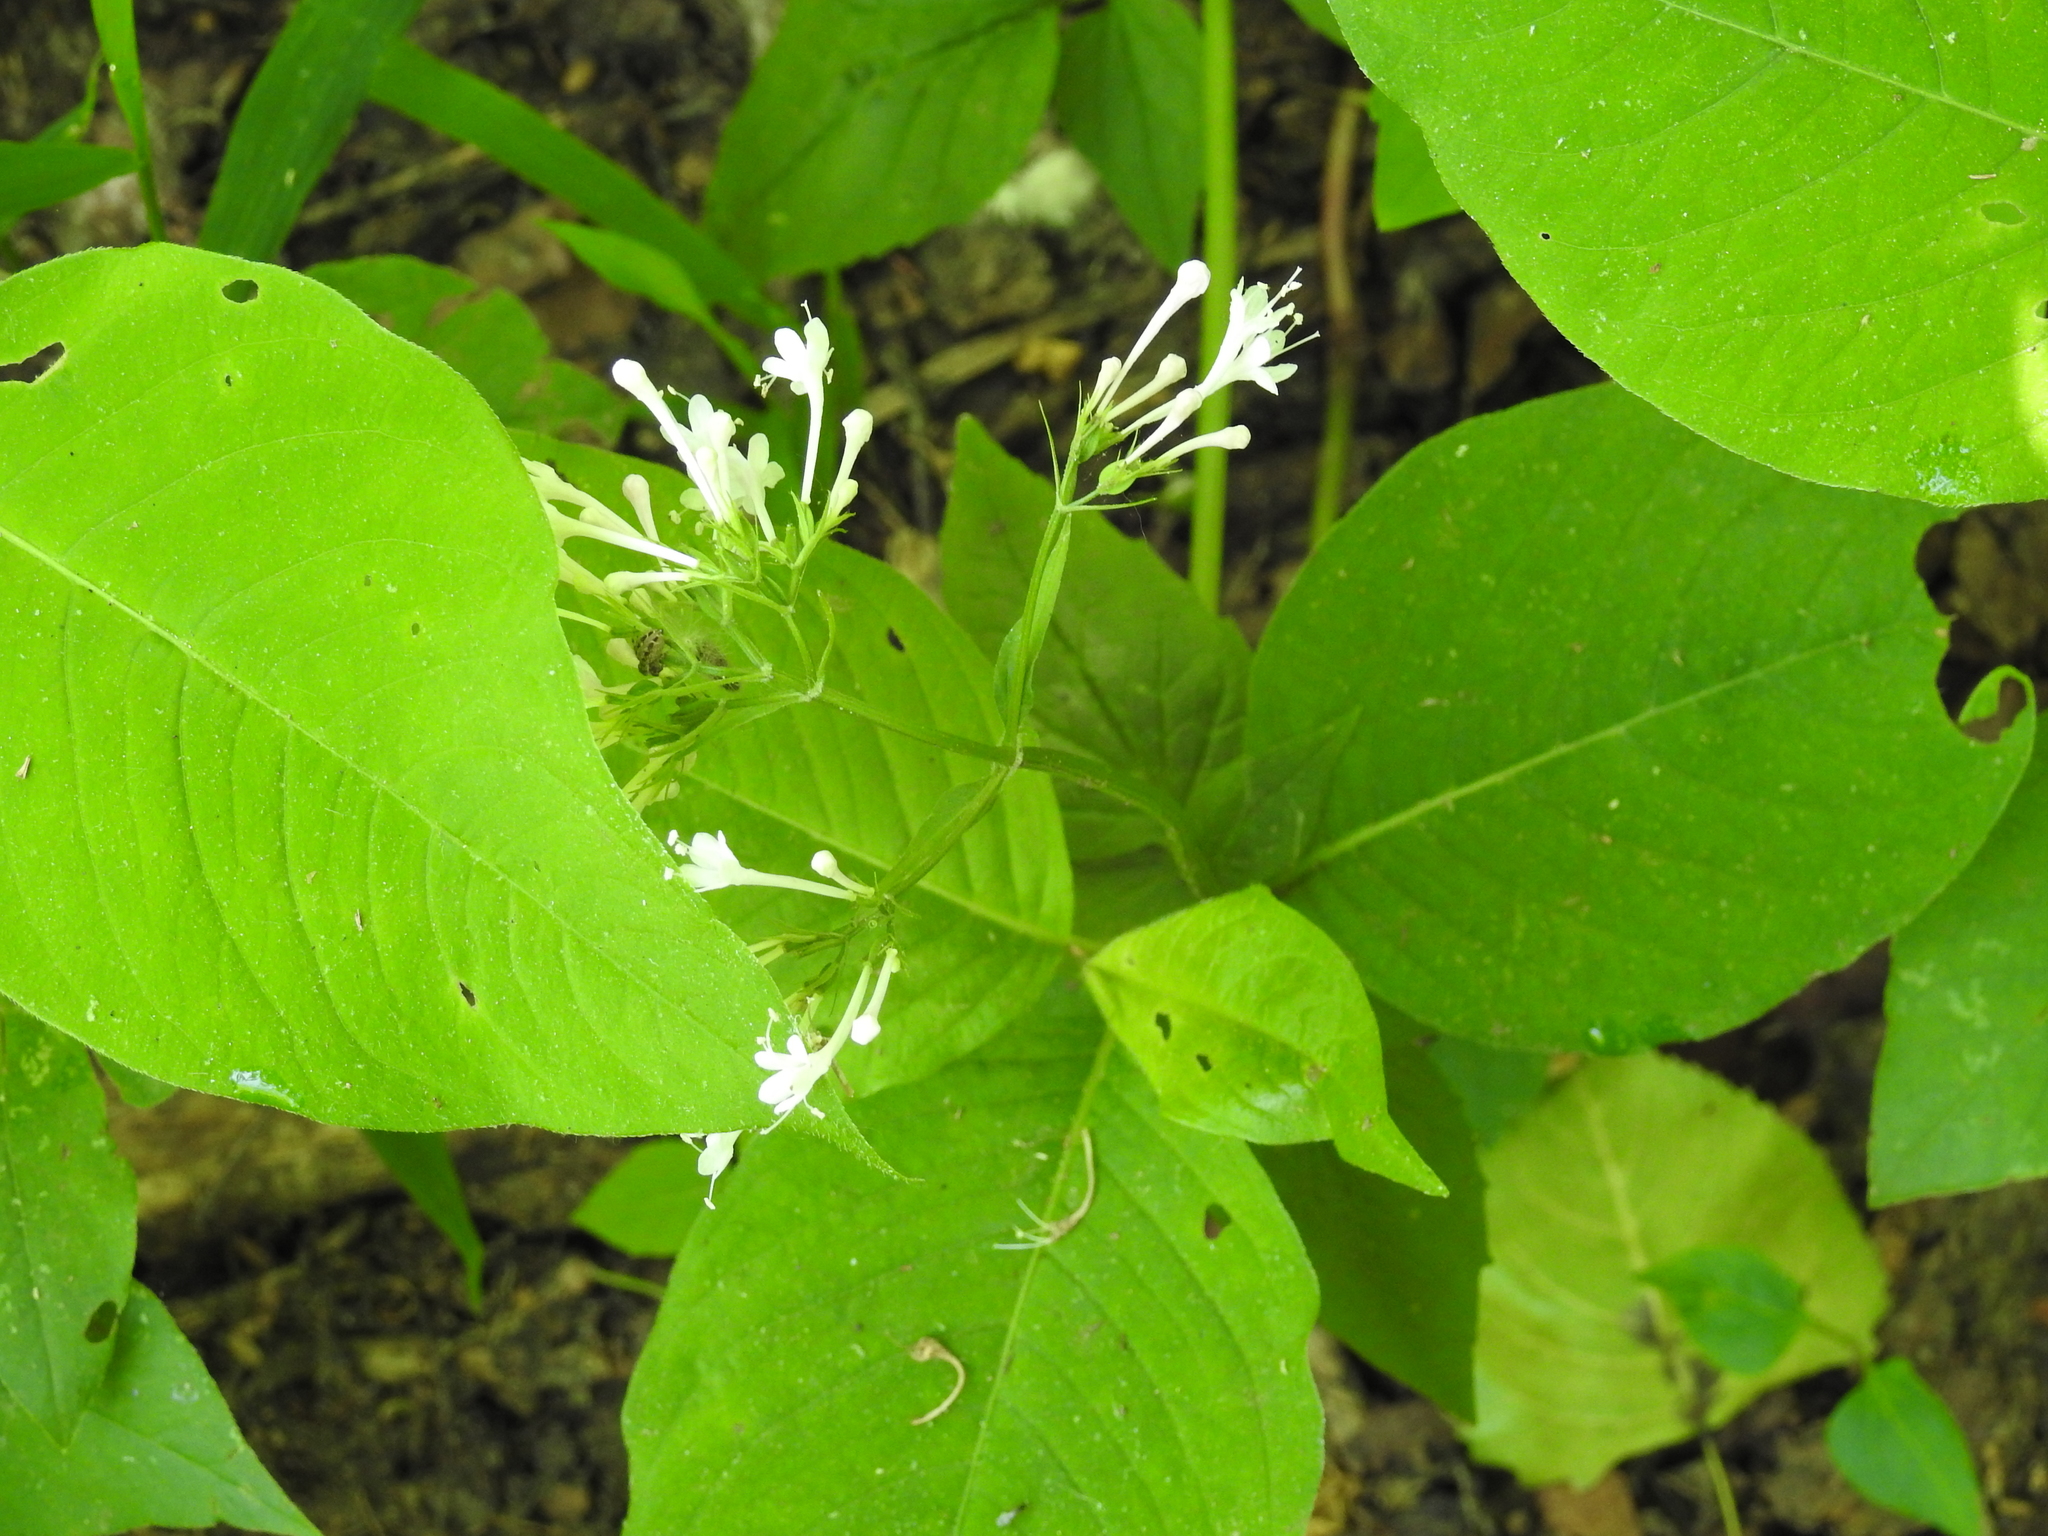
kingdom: Plantae
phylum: Tracheophyta
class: Magnoliopsida
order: Dipsacales
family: Caprifoliaceae
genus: Valeriana
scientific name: Valeriana pauciflora
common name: Long-tube valeriana
